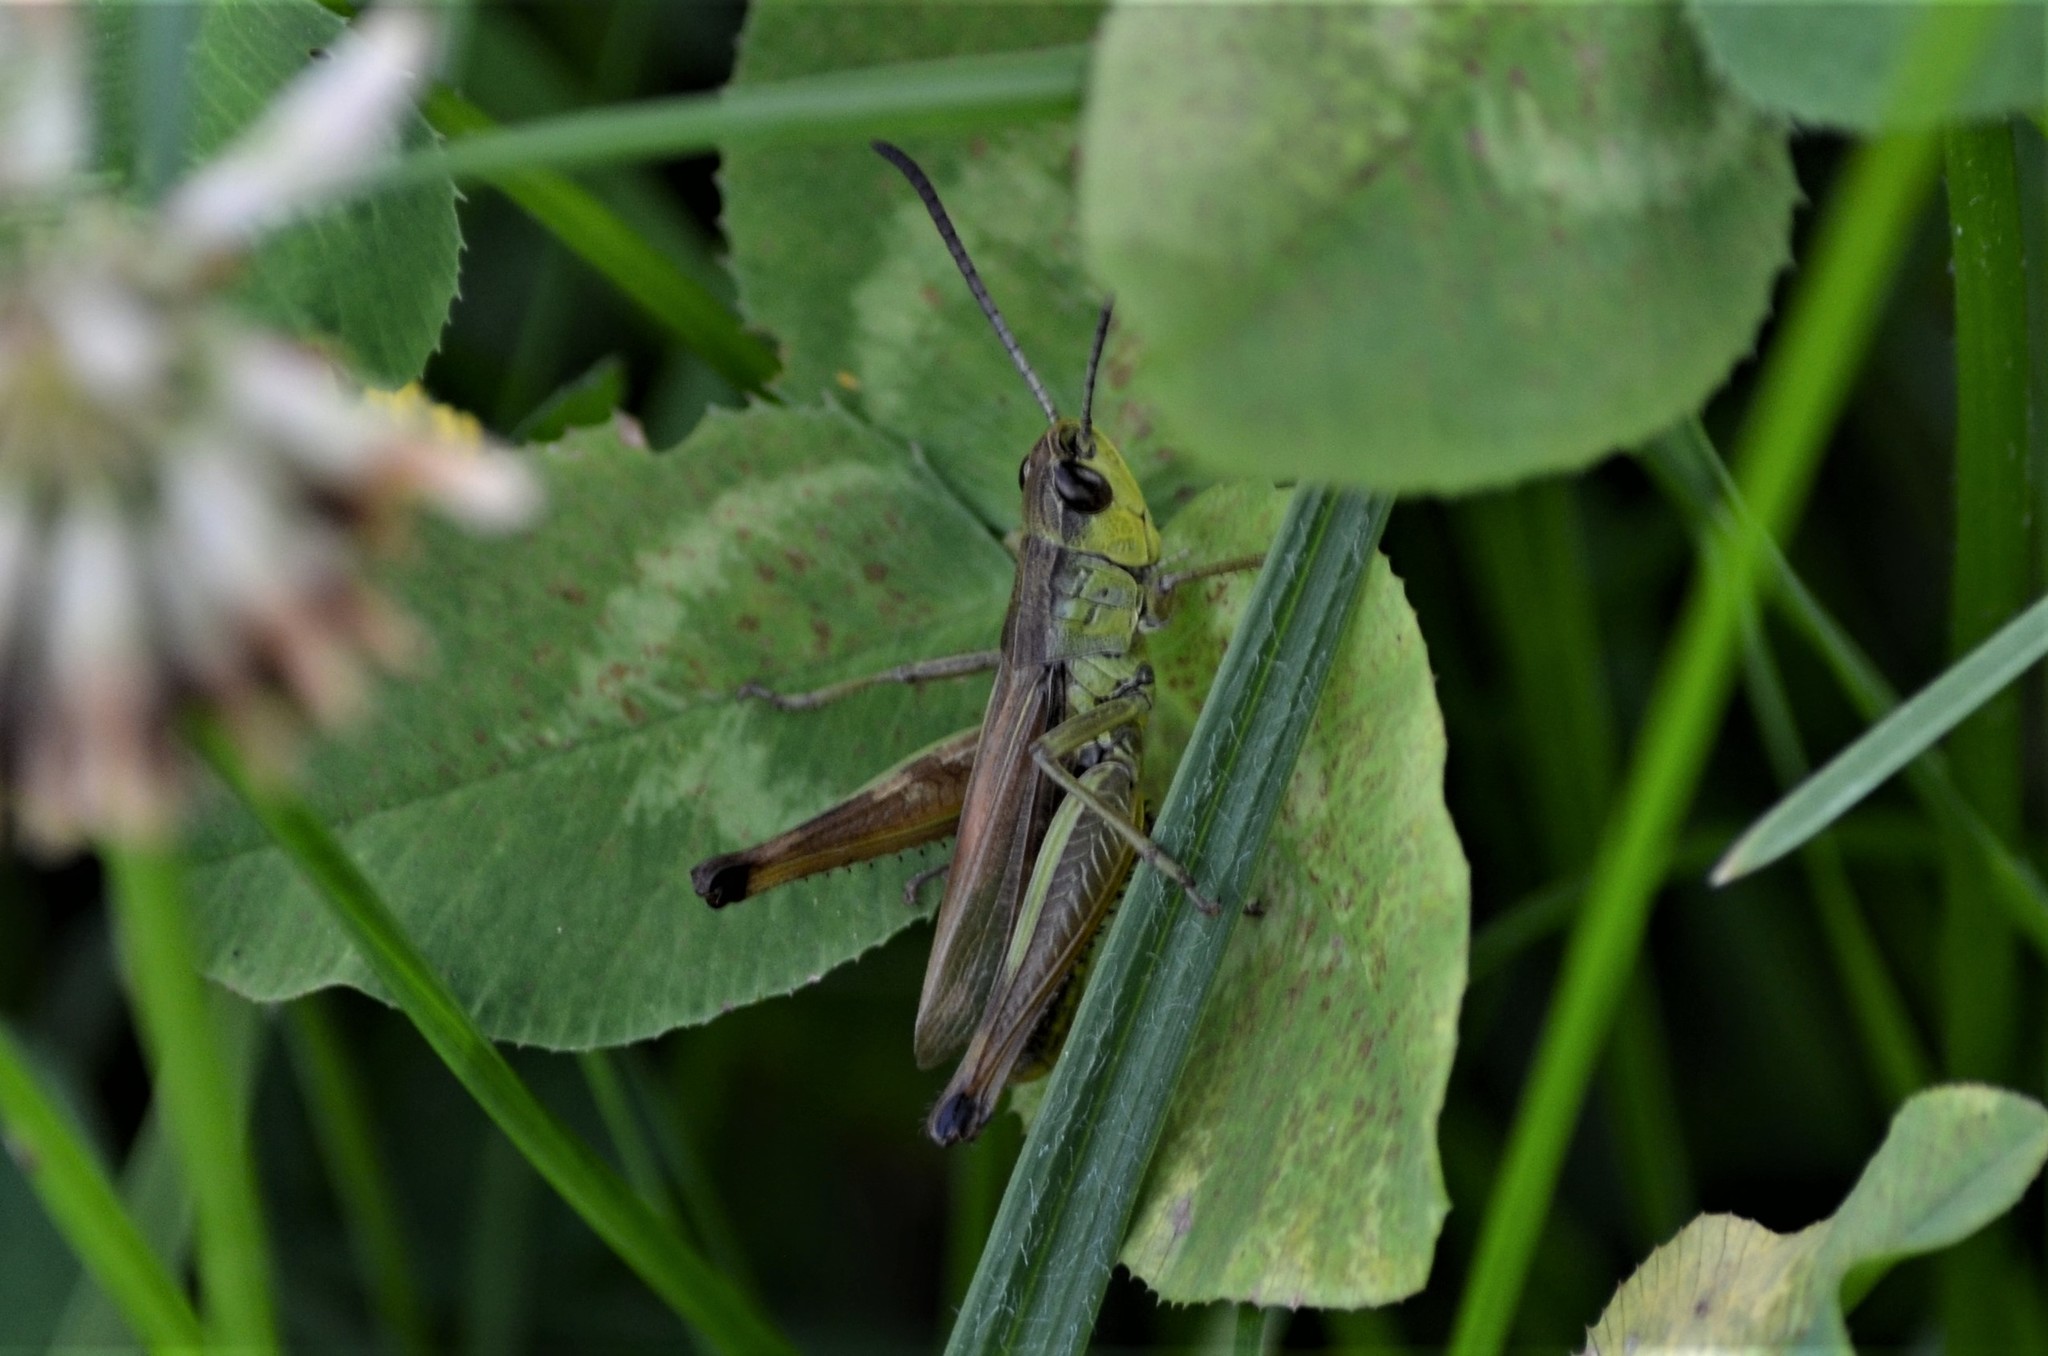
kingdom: Animalia
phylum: Arthropoda
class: Insecta
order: Orthoptera
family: Acrididae
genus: Pseudochorthippus
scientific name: Pseudochorthippus parallelus
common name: Meadow grasshopper
